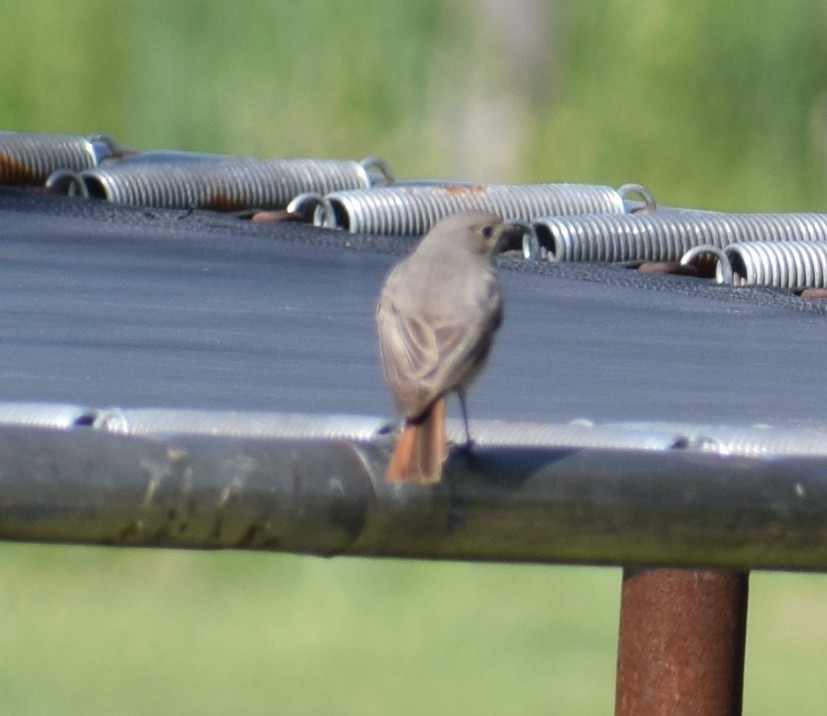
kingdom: Animalia
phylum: Chordata
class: Aves
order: Passeriformes
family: Muscicapidae
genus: Phoenicurus
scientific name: Phoenicurus ochruros
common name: Black redstart
